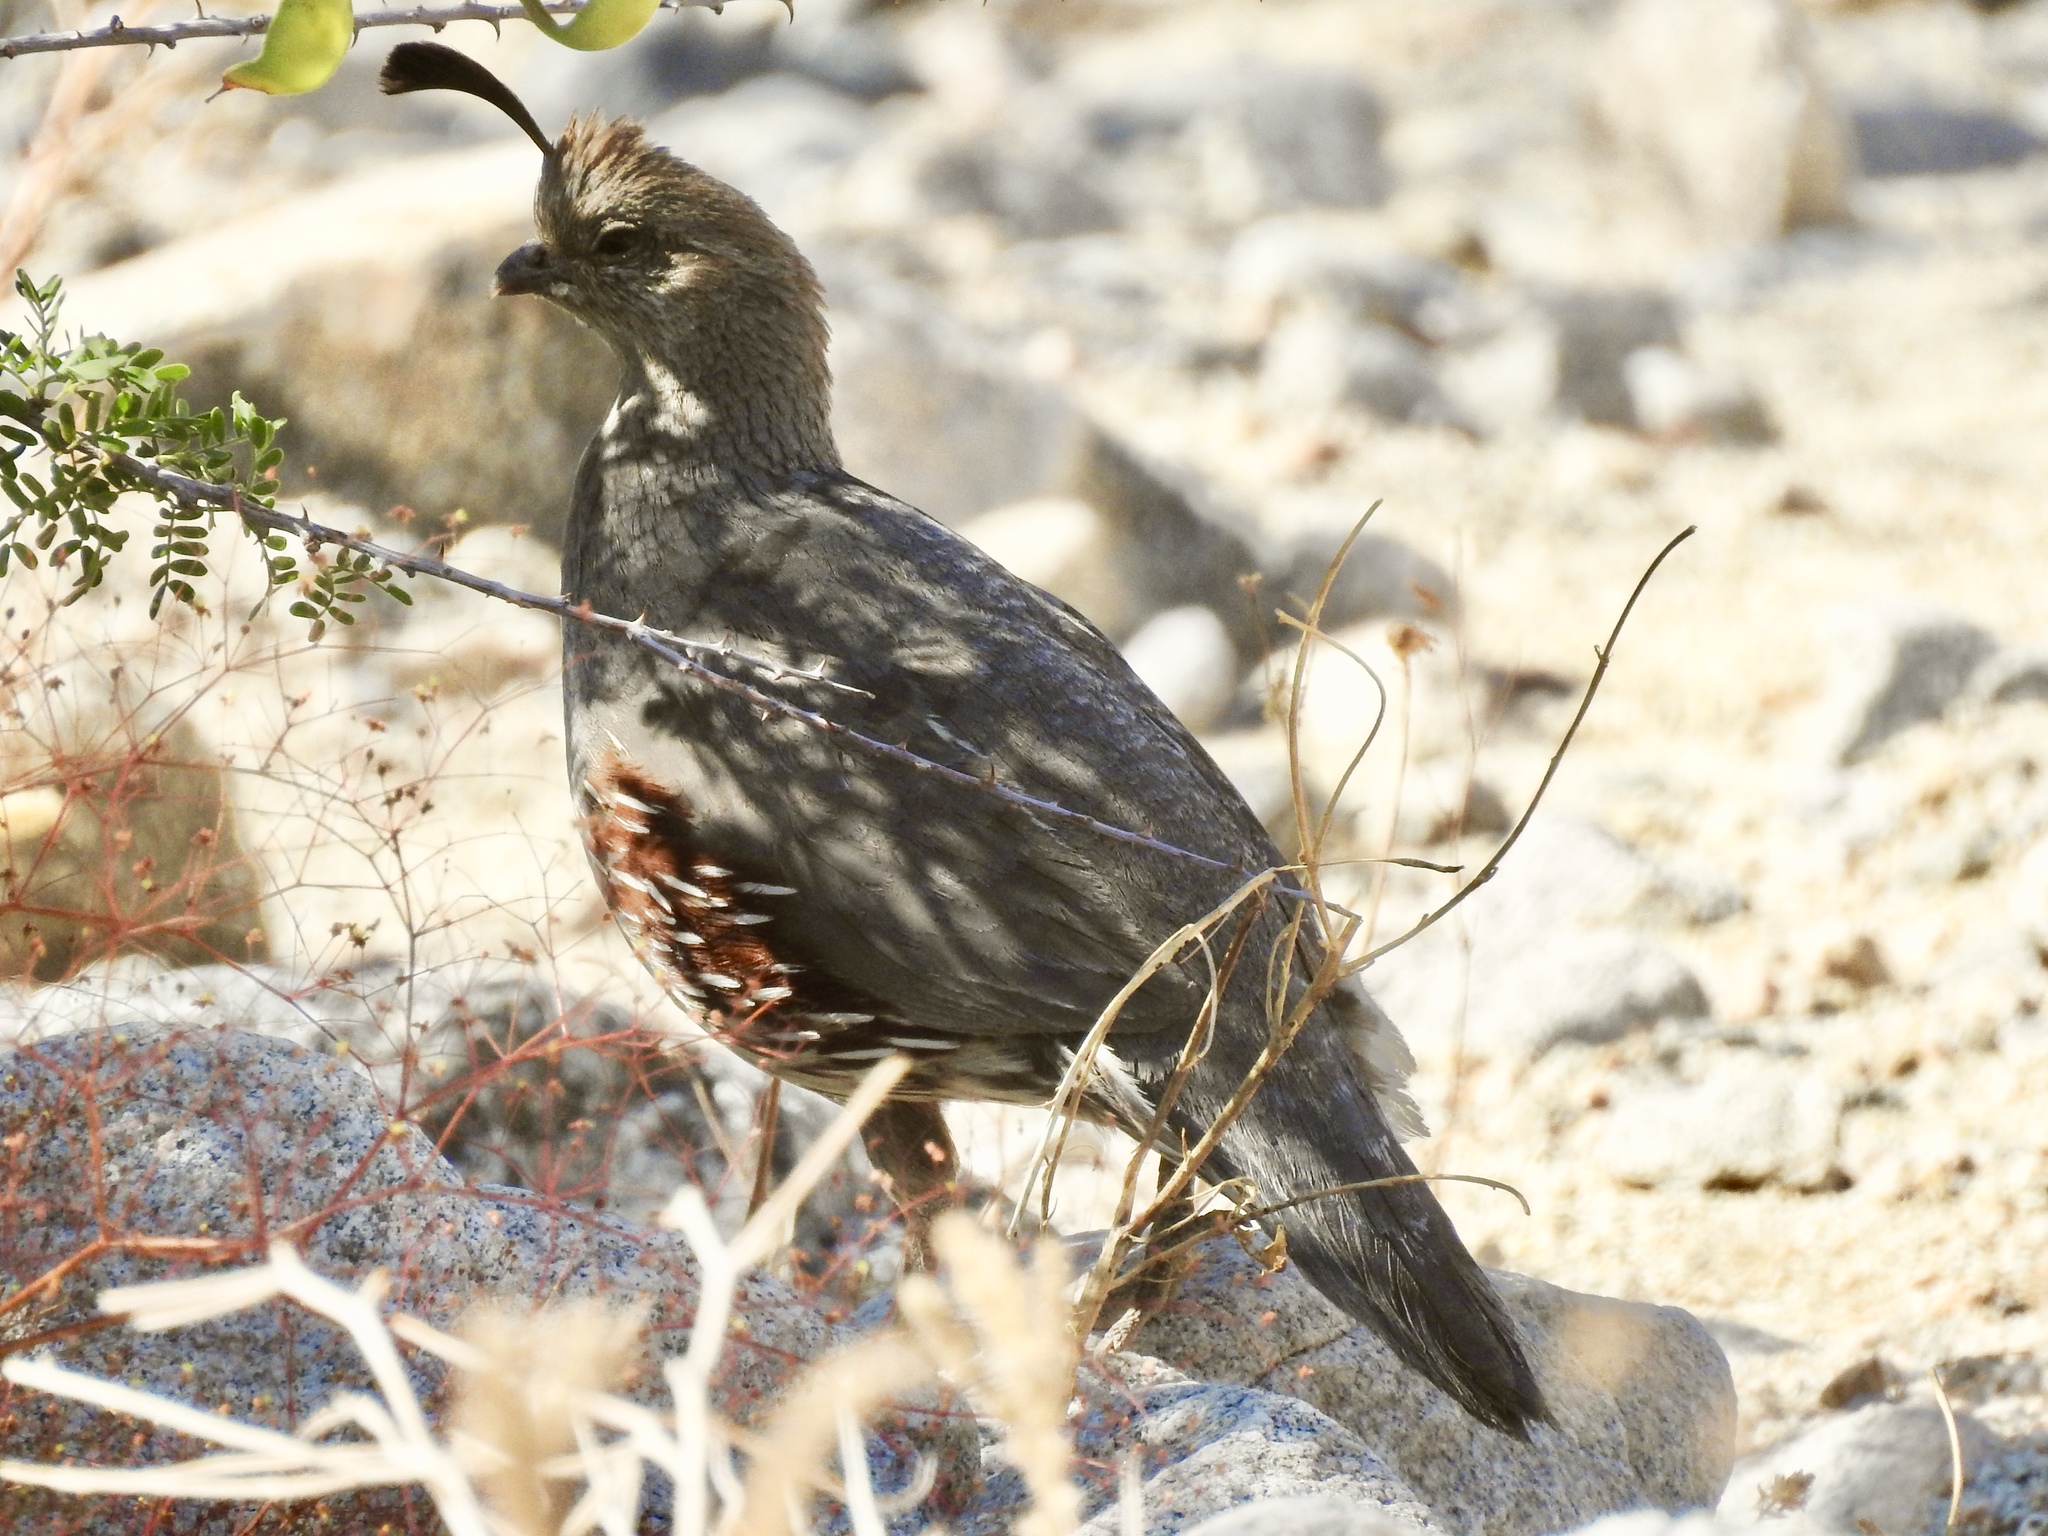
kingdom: Animalia
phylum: Chordata
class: Aves
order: Galliformes
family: Odontophoridae
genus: Callipepla
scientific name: Callipepla gambelii
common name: Gambel's quail
